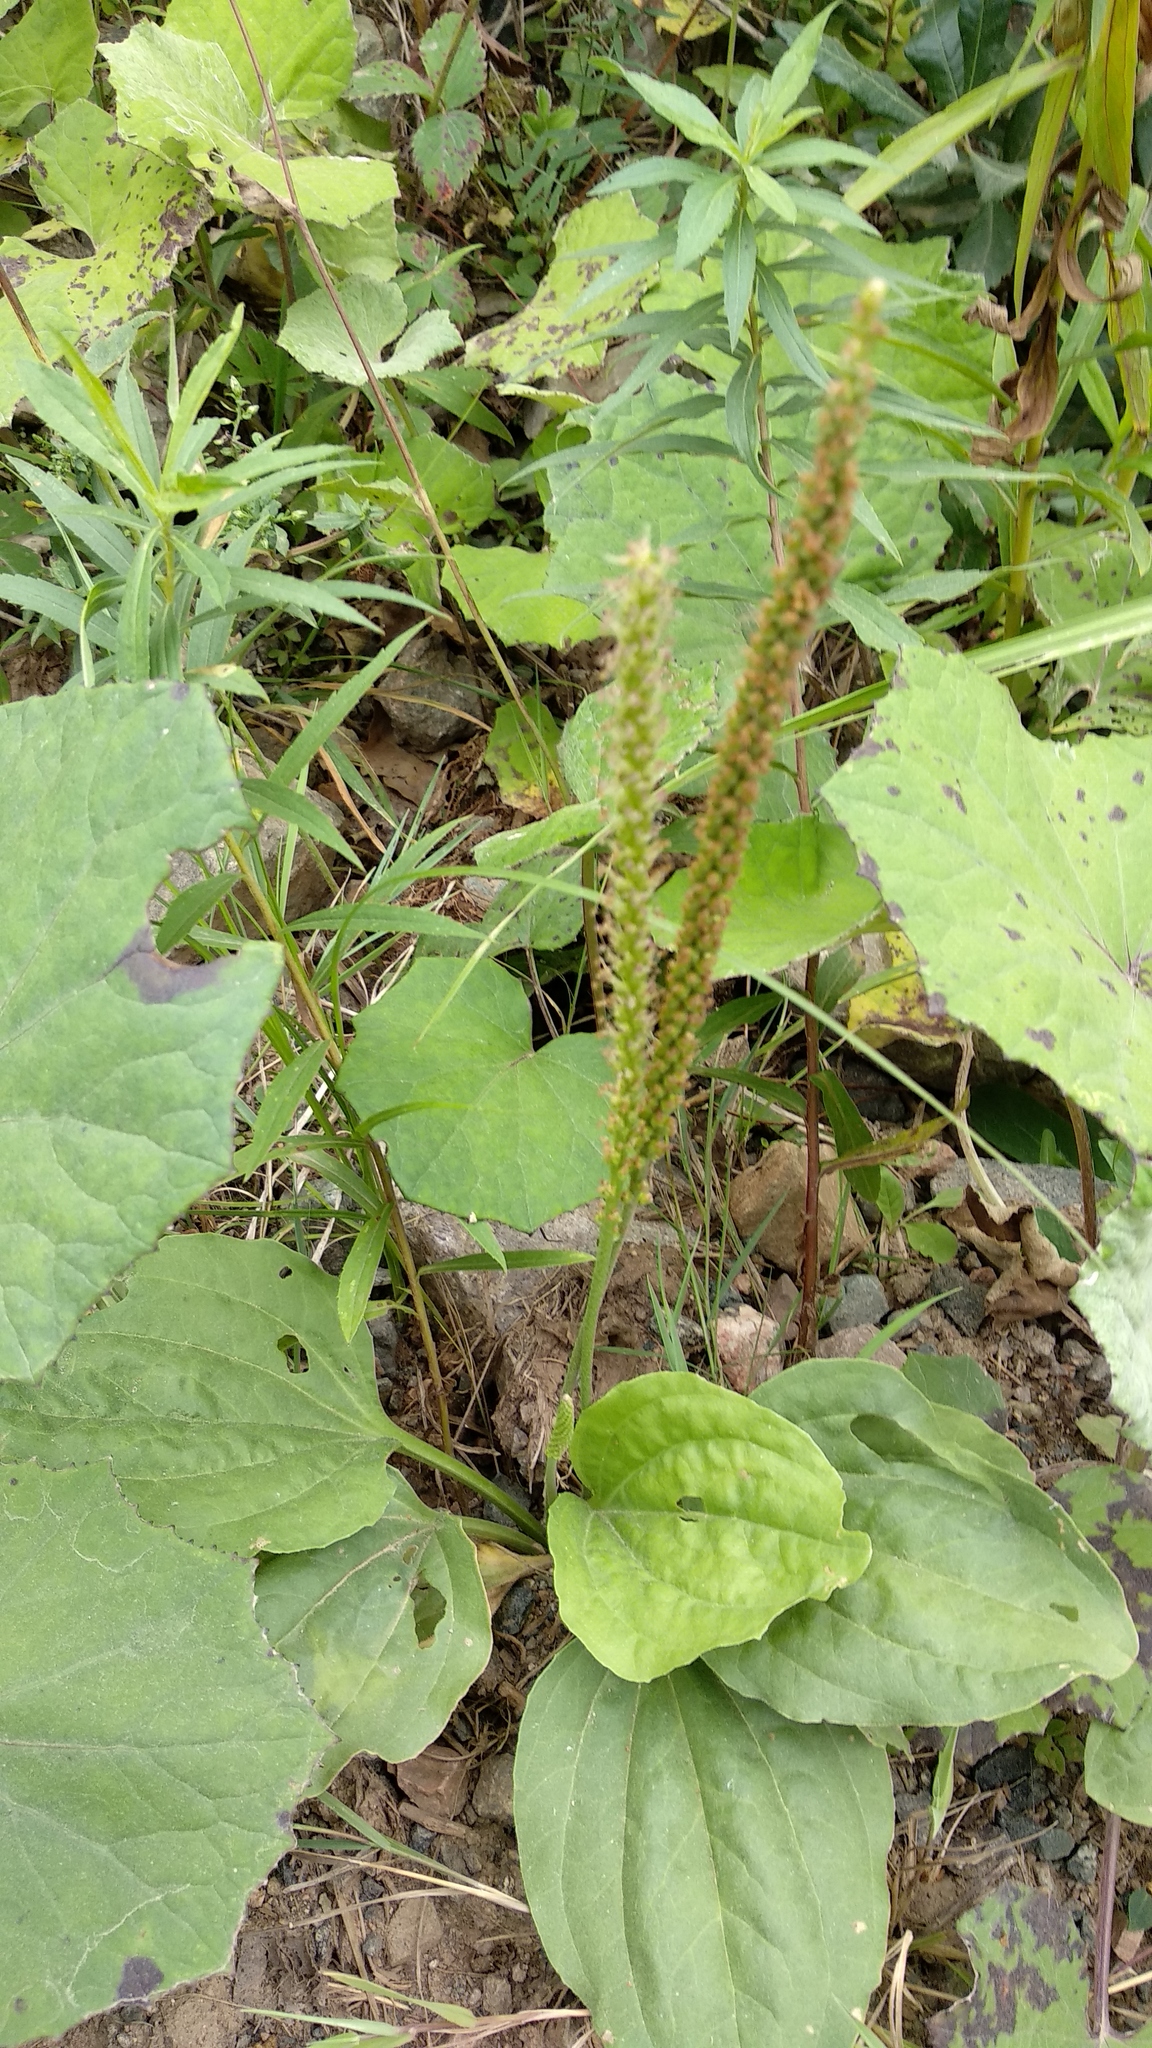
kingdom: Plantae
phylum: Tracheophyta
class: Magnoliopsida
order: Lamiales
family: Plantaginaceae
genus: Plantago
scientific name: Plantago major
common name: Common plantain
